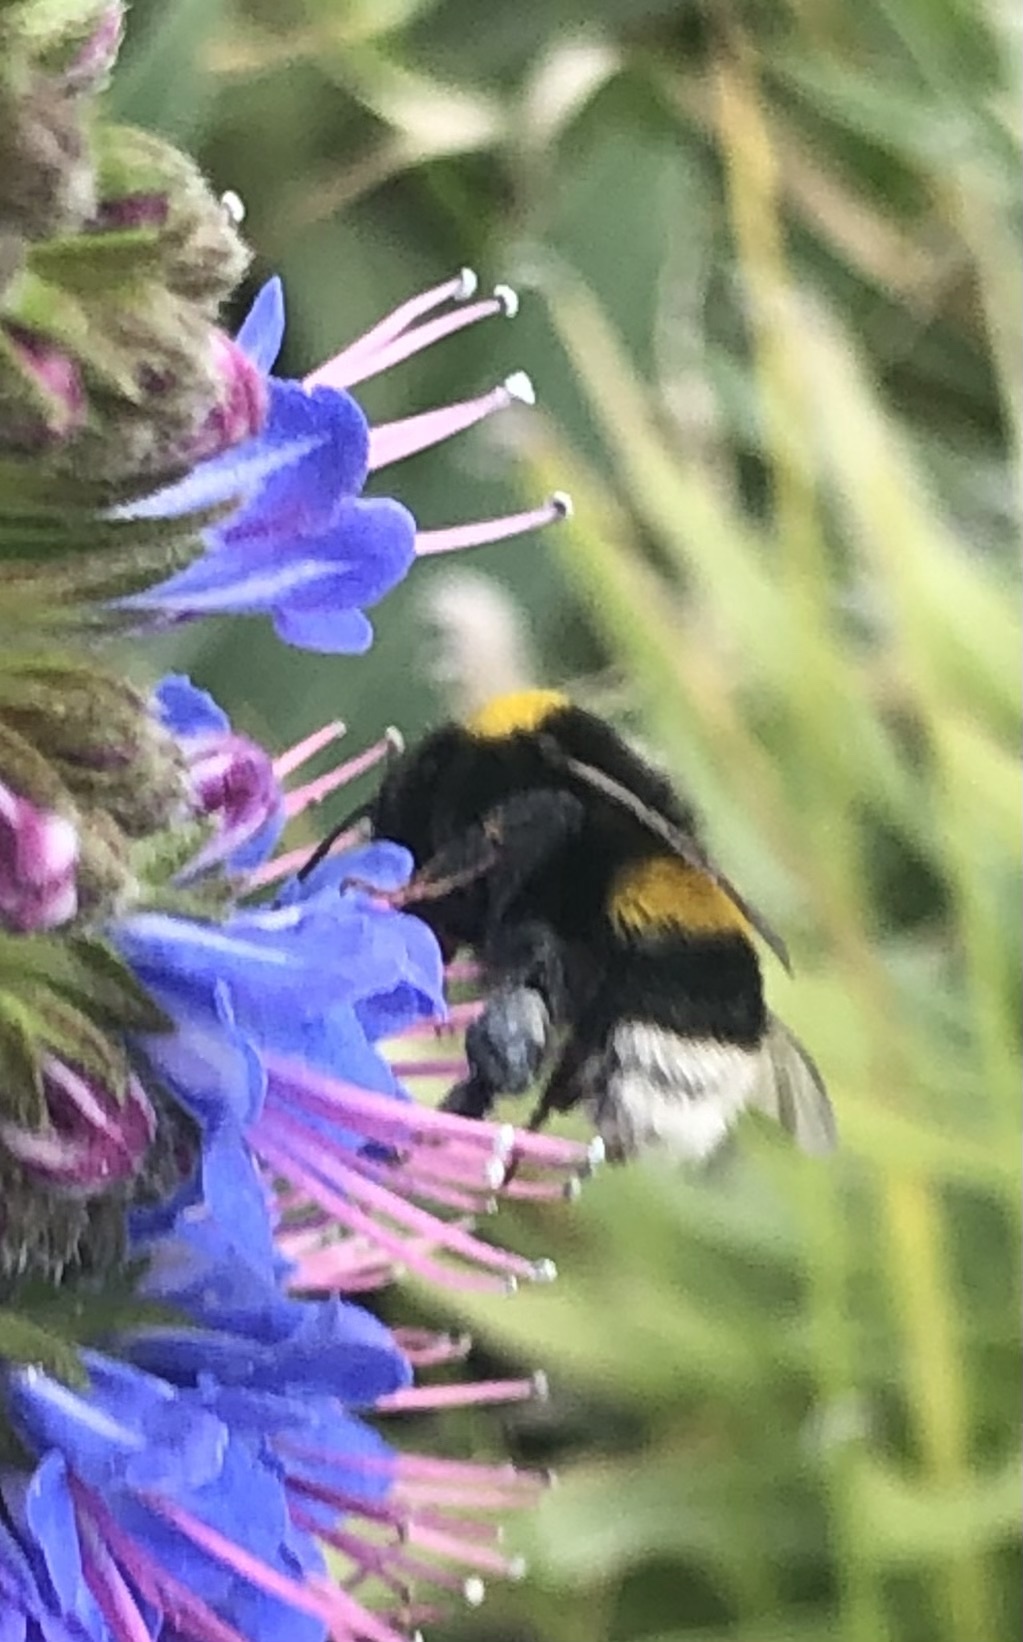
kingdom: Animalia
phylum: Arthropoda
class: Insecta
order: Hymenoptera
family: Apidae
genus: Bombus
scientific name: Bombus terrestris
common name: Buff-tailed bumblebee
